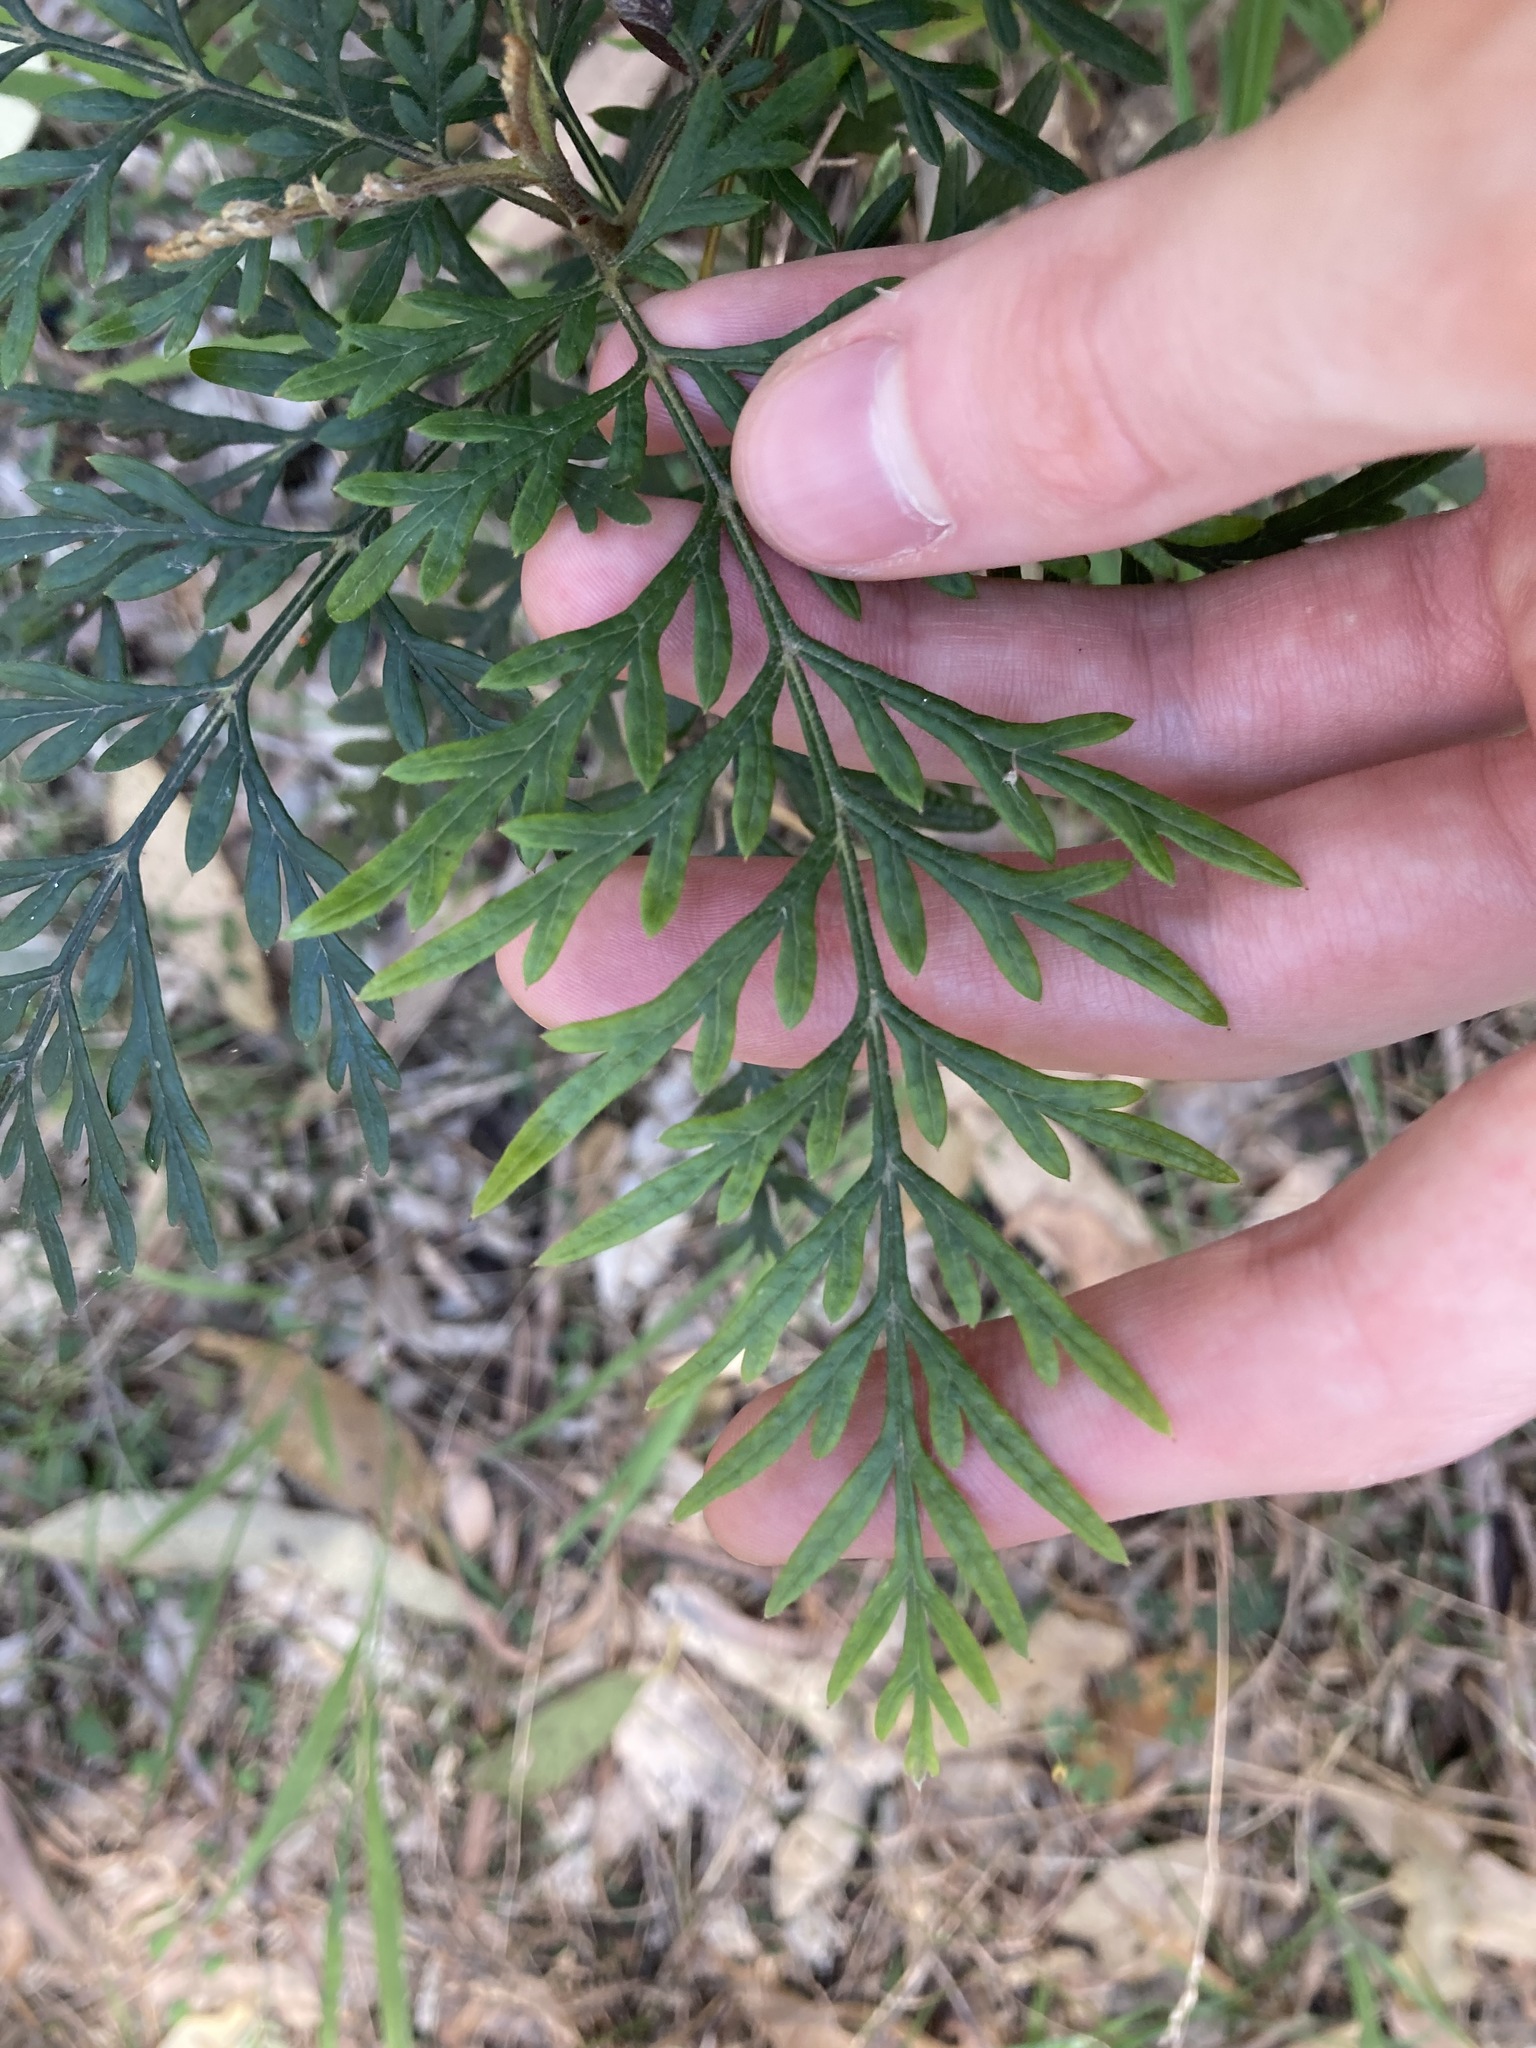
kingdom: Plantae
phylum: Tracheophyta
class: Magnoliopsida
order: Proteales
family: Proteaceae
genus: Grevillea
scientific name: Grevillea robusta
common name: Silkoak
